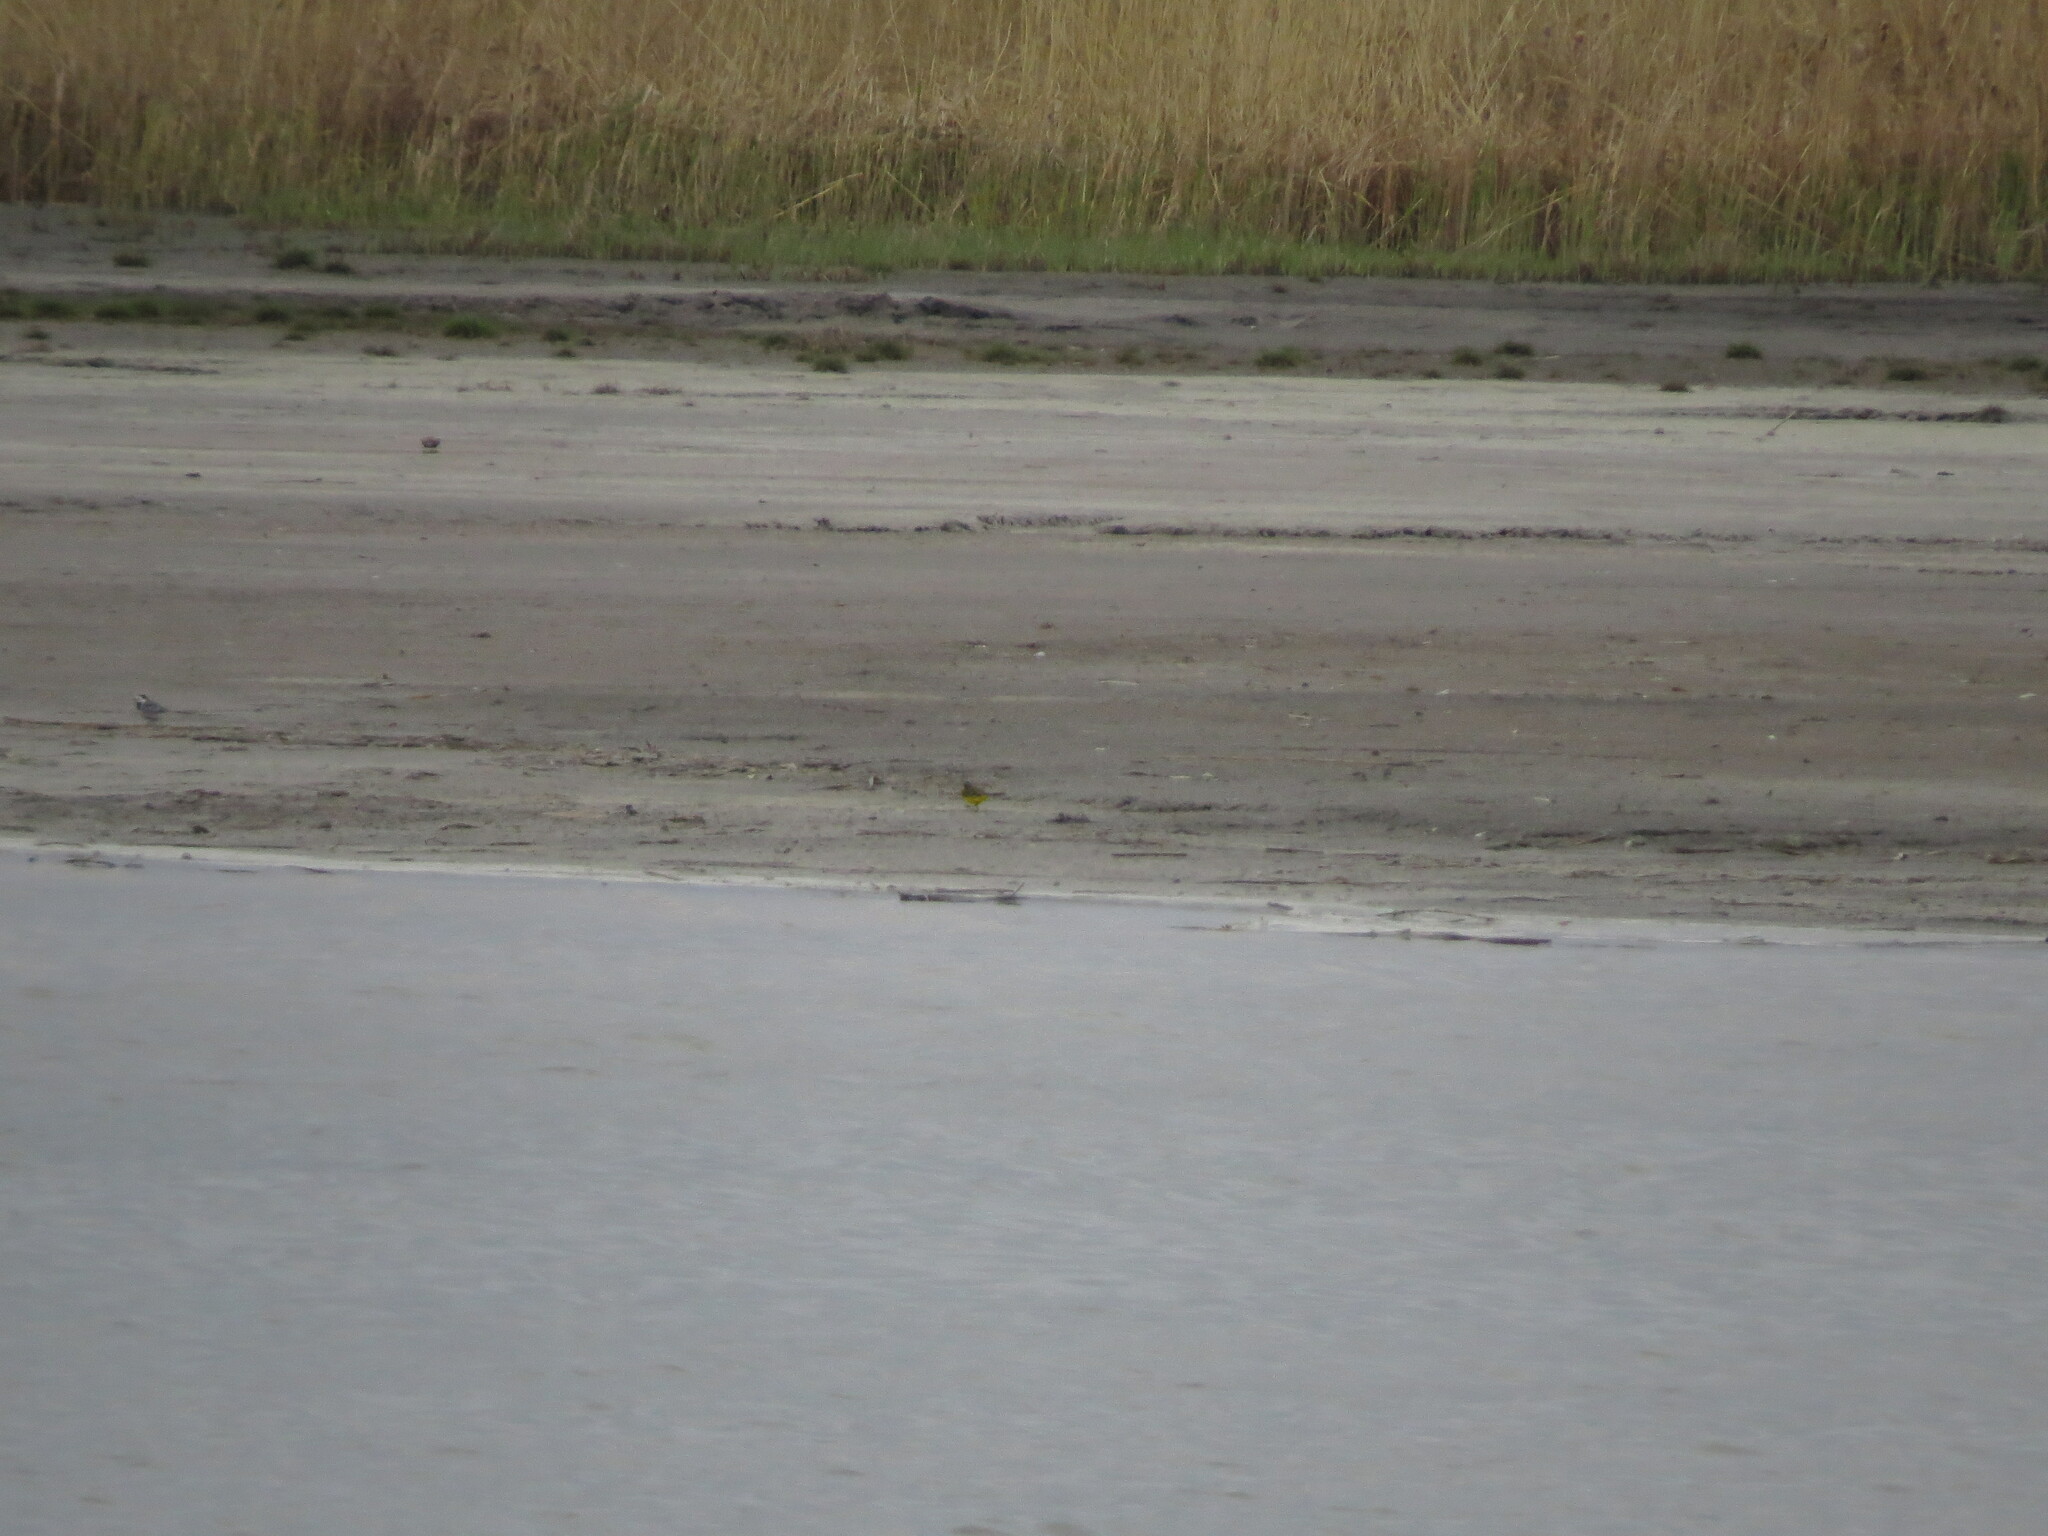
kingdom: Animalia
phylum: Chordata
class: Aves
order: Passeriformes
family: Motacillidae
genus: Motacilla
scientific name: Motacilla flava
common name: Western yellow wagtail
